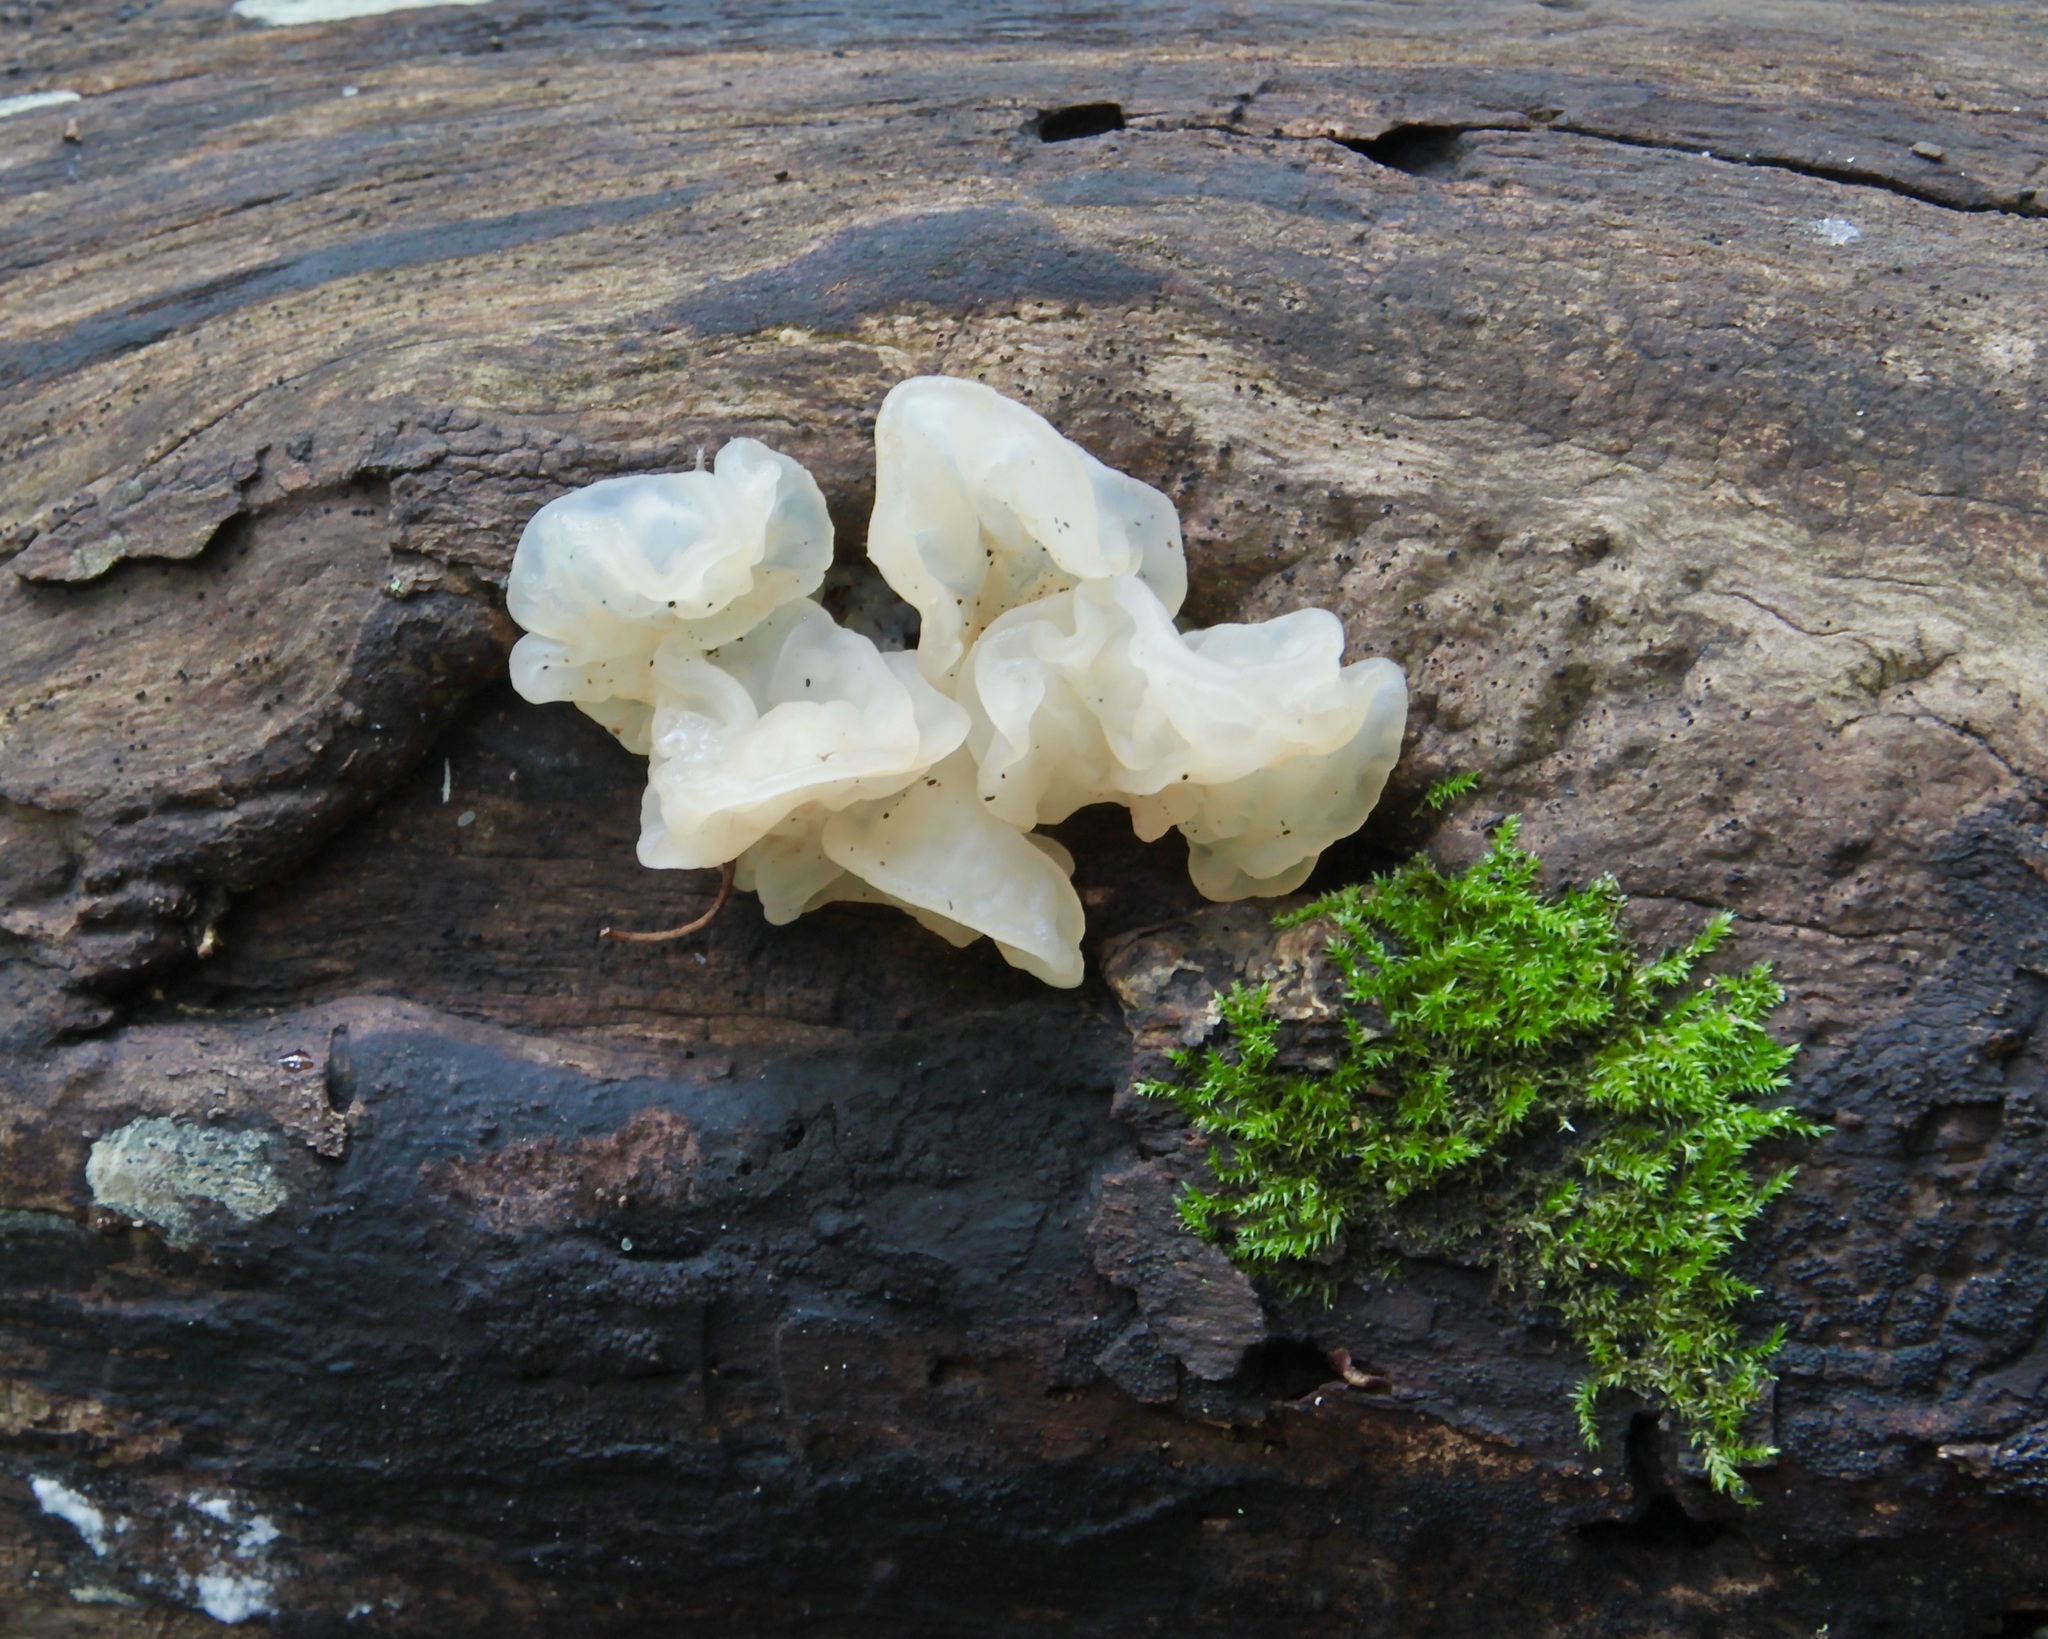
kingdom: Fungi
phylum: Basidiomycota
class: Agaricomycetes
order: Auriculariales
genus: Ductifera
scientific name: Ductifera pululahuana
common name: White jelly fungus
